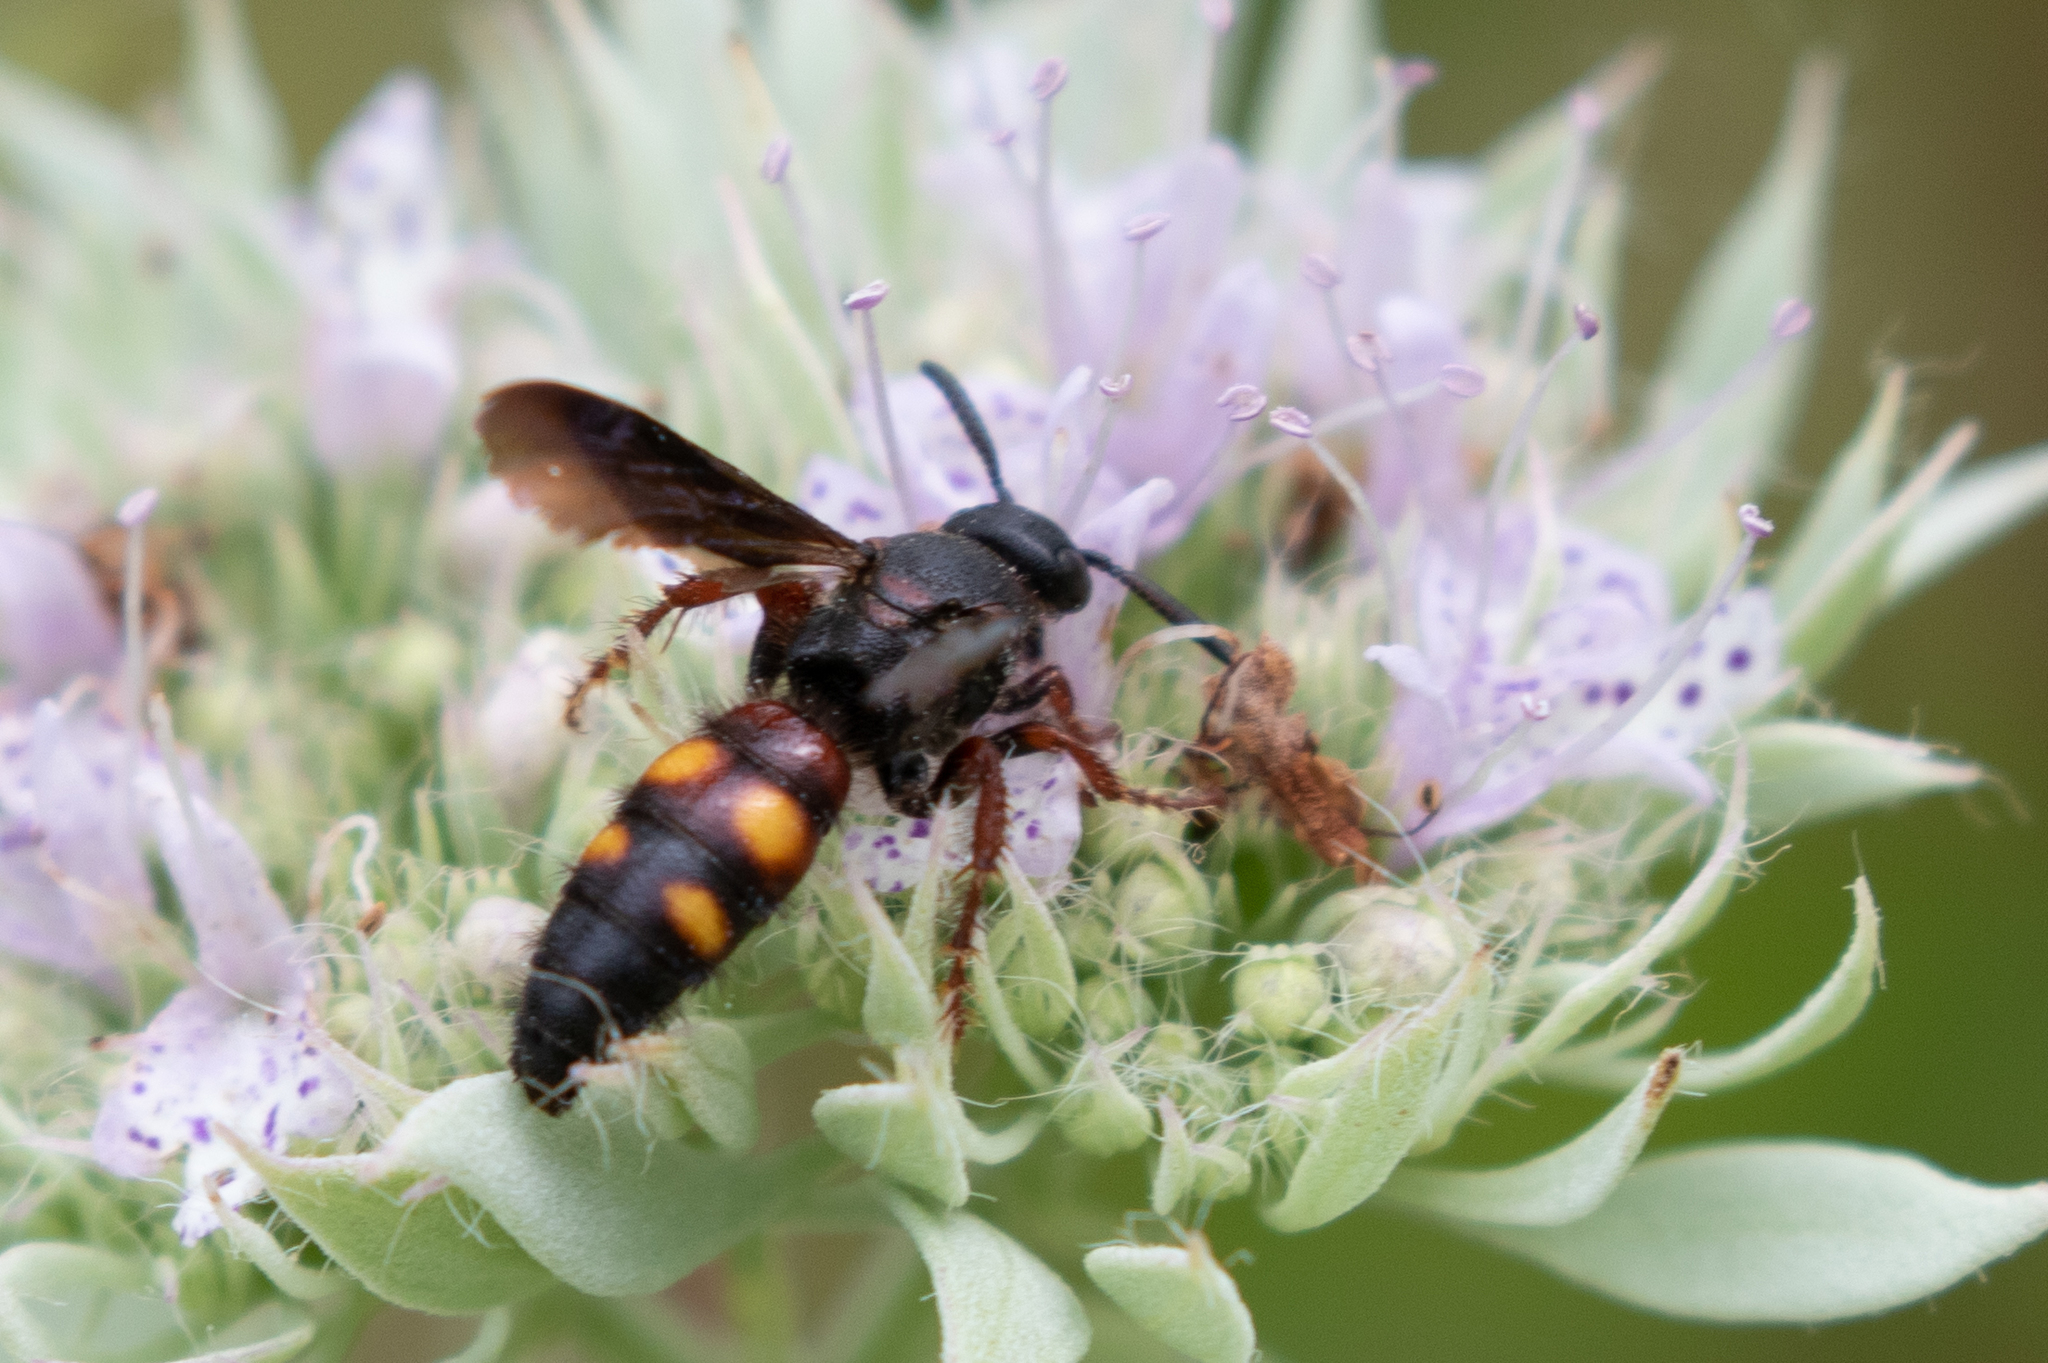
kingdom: Animalia
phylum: Arthropoda
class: Insecta
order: Hymenoptera
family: Scoliidae
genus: Scolia
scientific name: Scolia nobilitata
